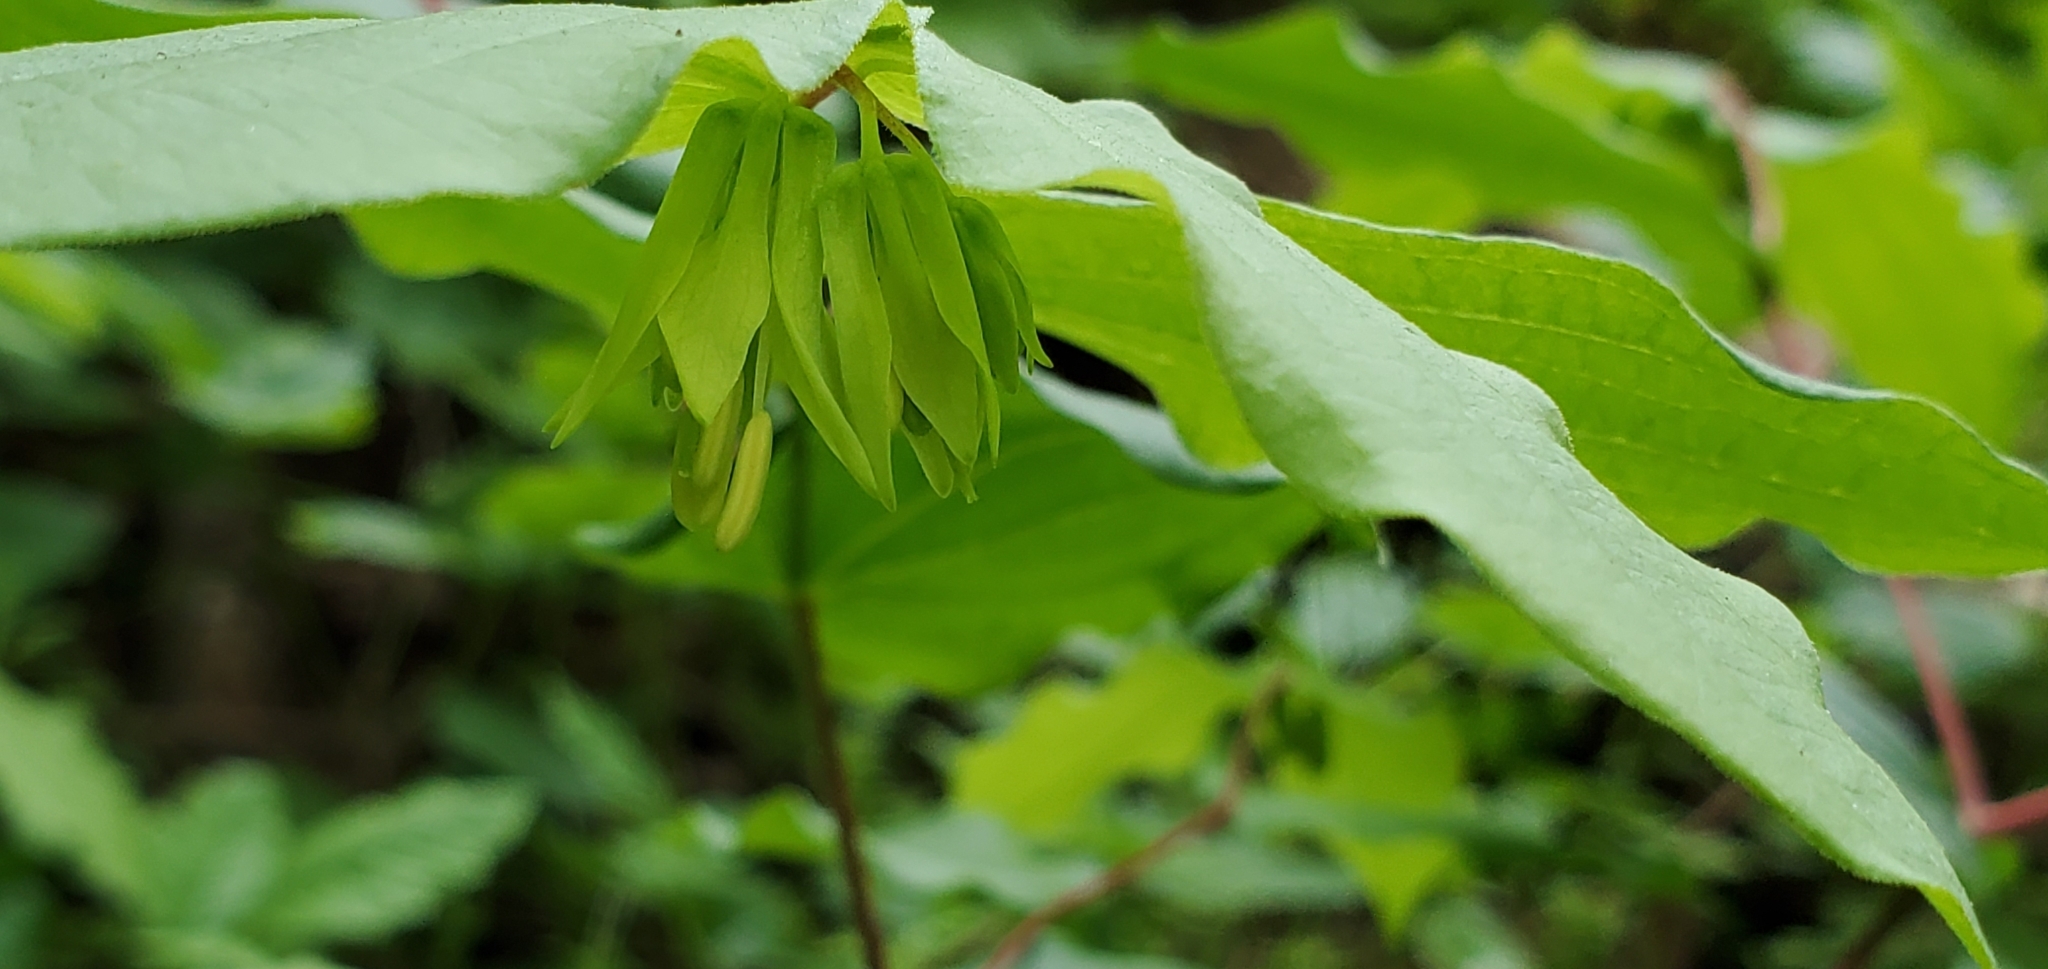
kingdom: Plantae
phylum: Tracheophyta
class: Liliopsida
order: Liliales
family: Liliaceae
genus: Prosartes
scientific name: Prosartes hookeri
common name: Fairy-bells
